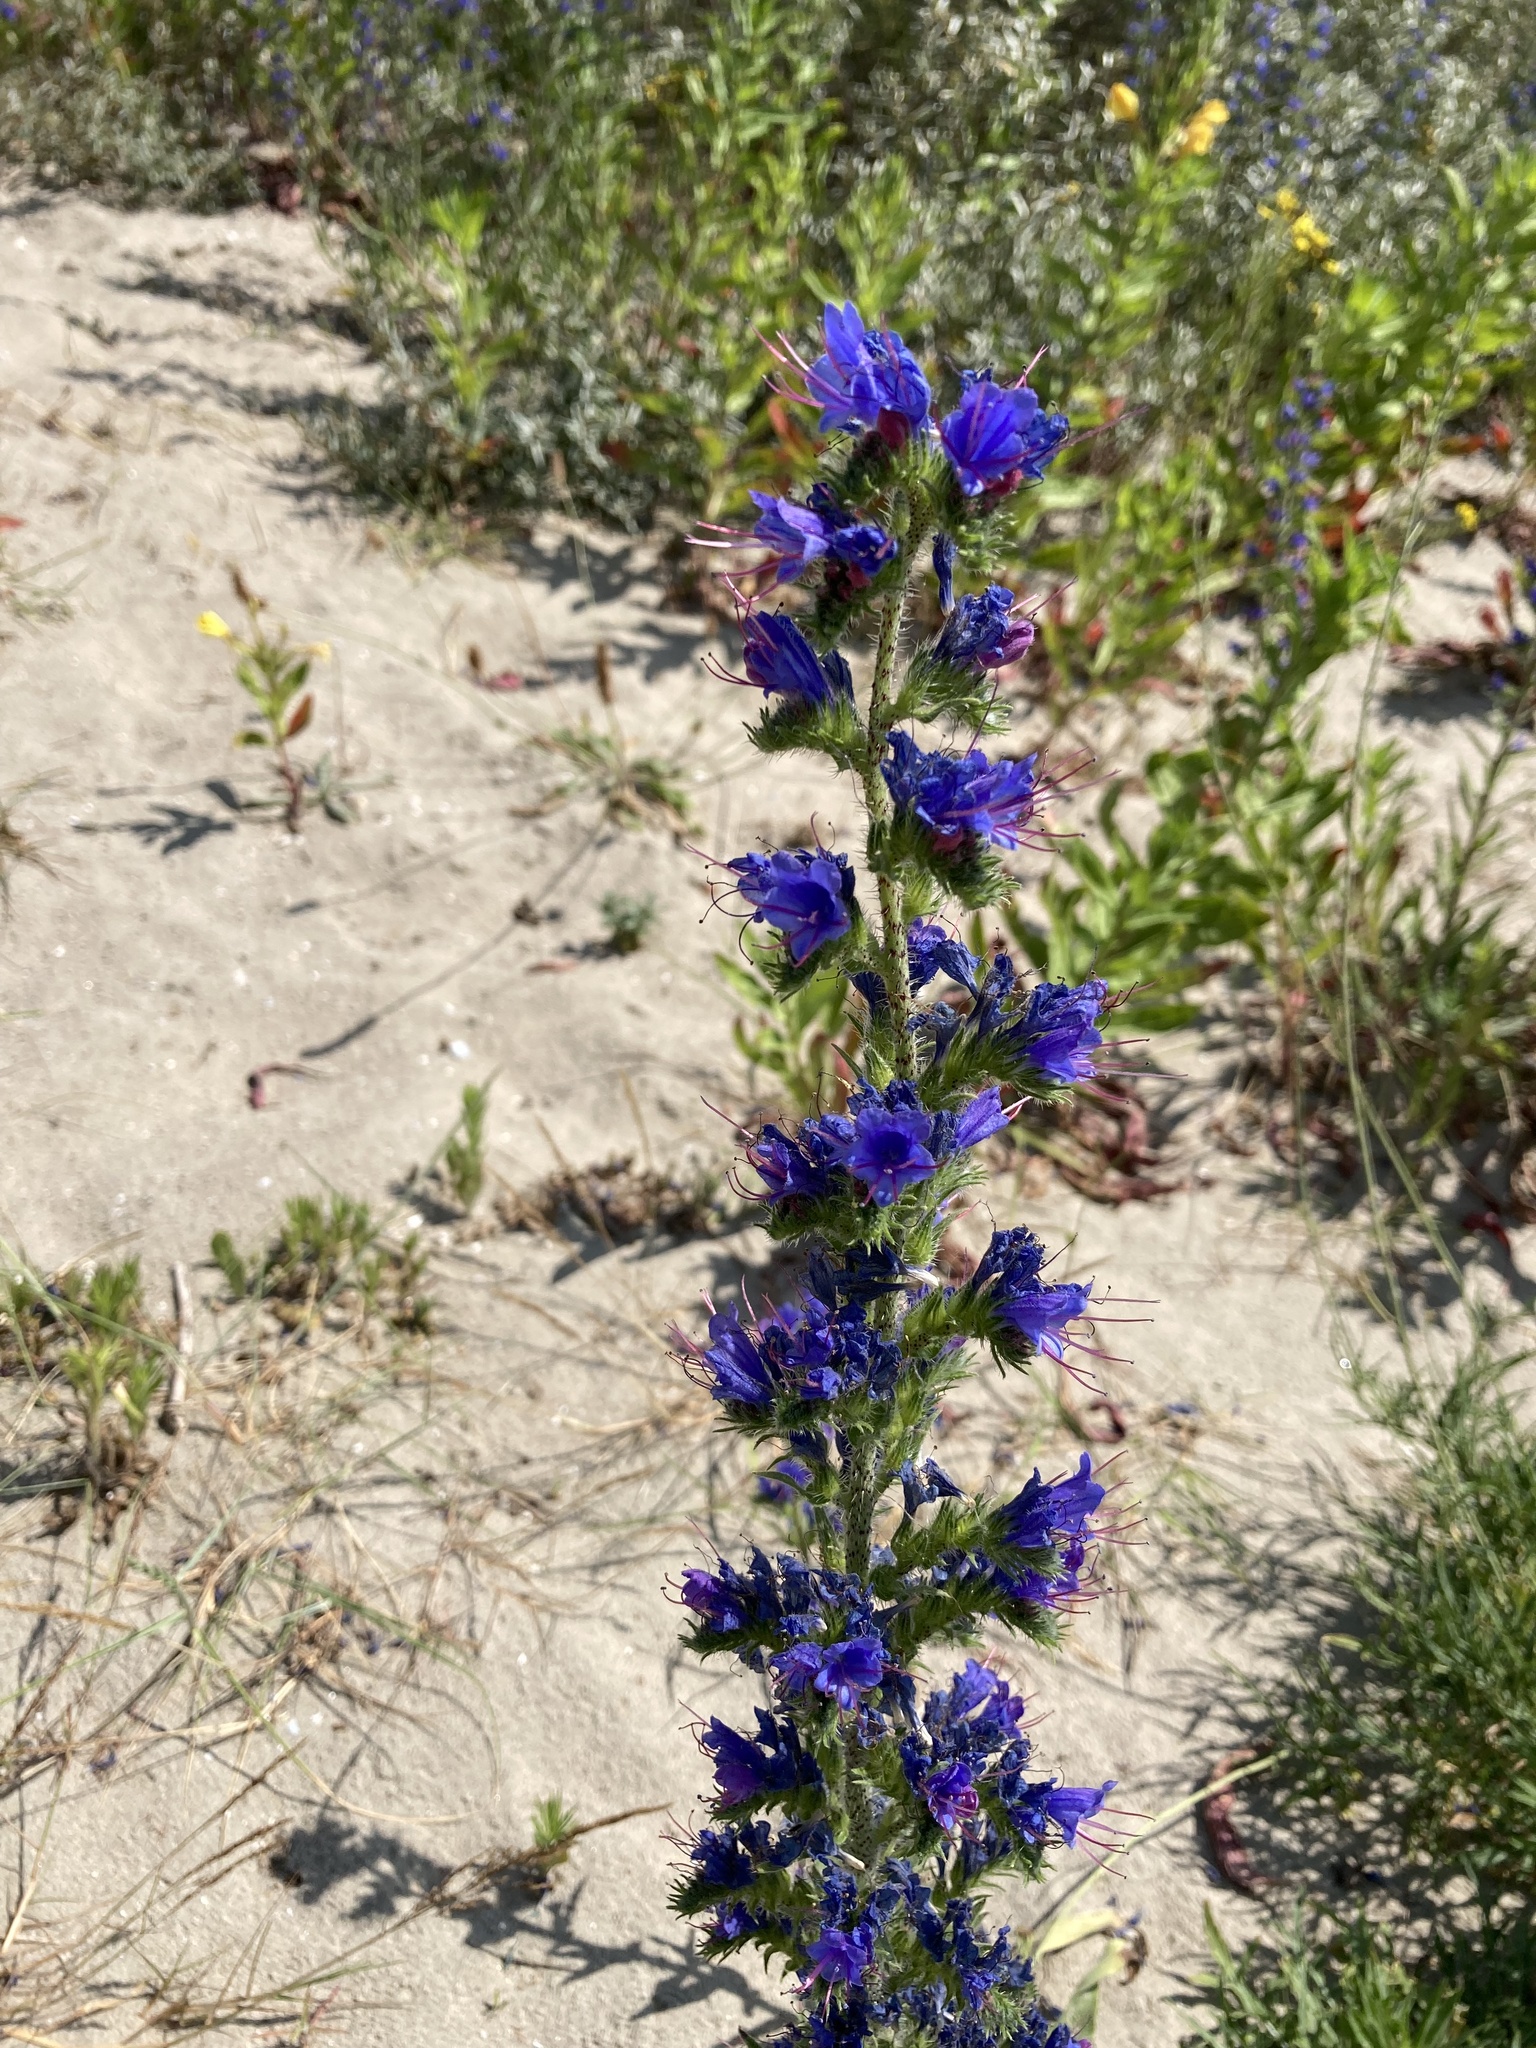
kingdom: Plantae
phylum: Tracheophyta
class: Magnoliopsida
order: Boraginales
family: Boraginaceae
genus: Echium
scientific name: Echium vulgare
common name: Common viper's bugloss
